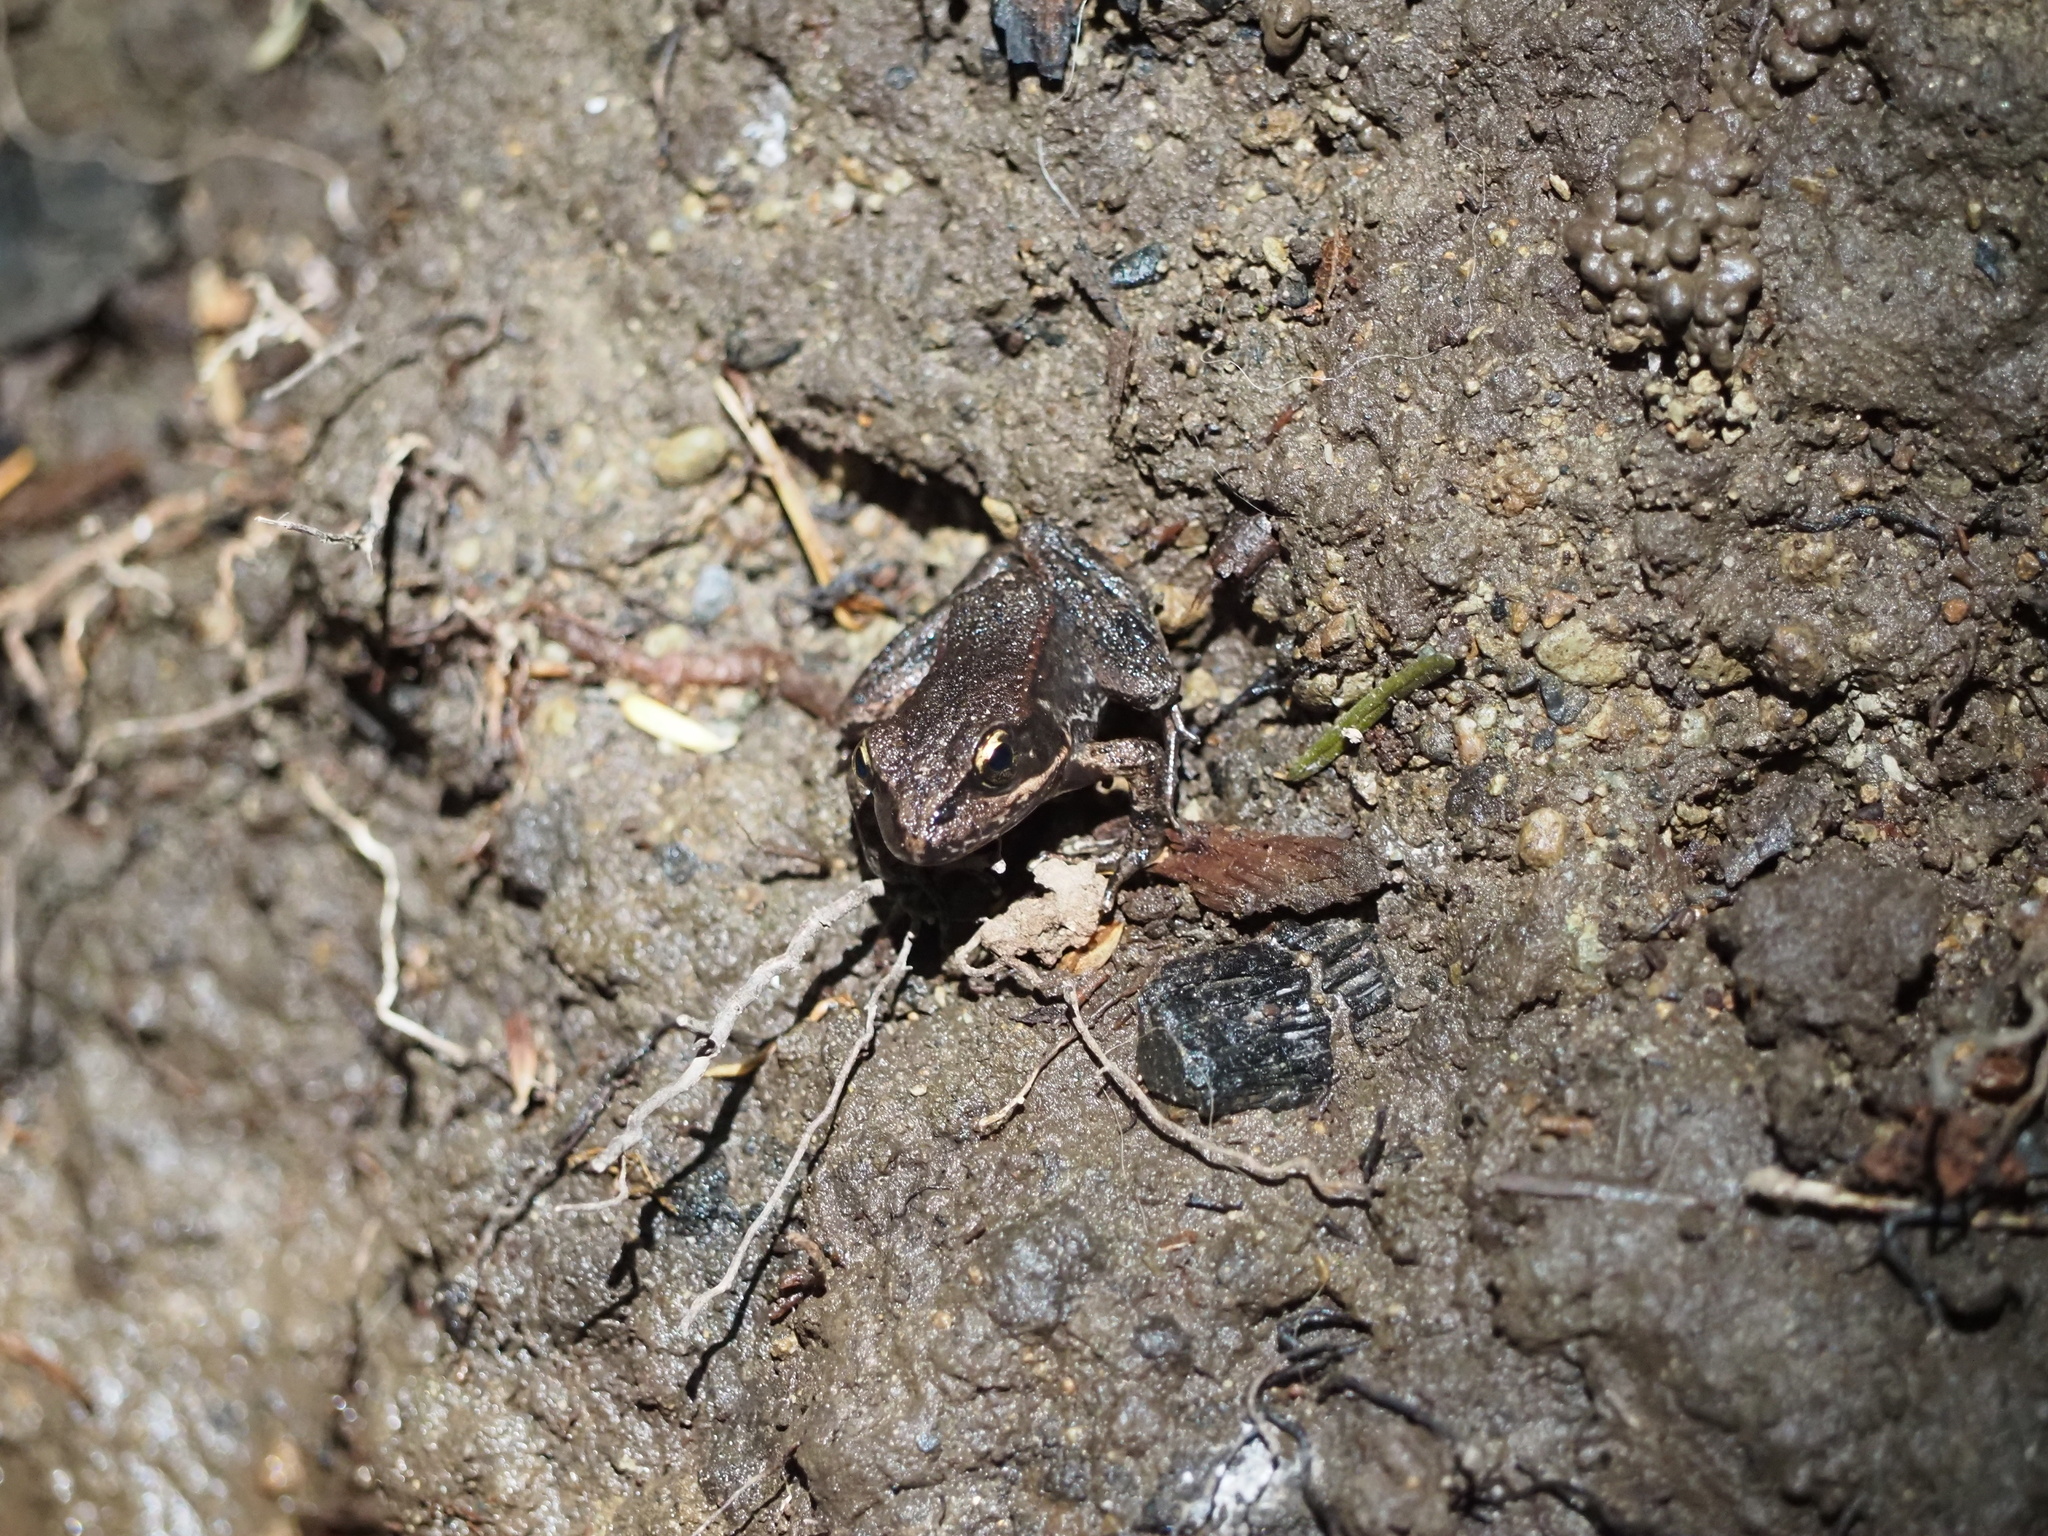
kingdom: Animalia
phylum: Chordata
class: Amphibia
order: Anura
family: Ranidae
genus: Rana
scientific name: Rana aurora
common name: Red-legged frog
